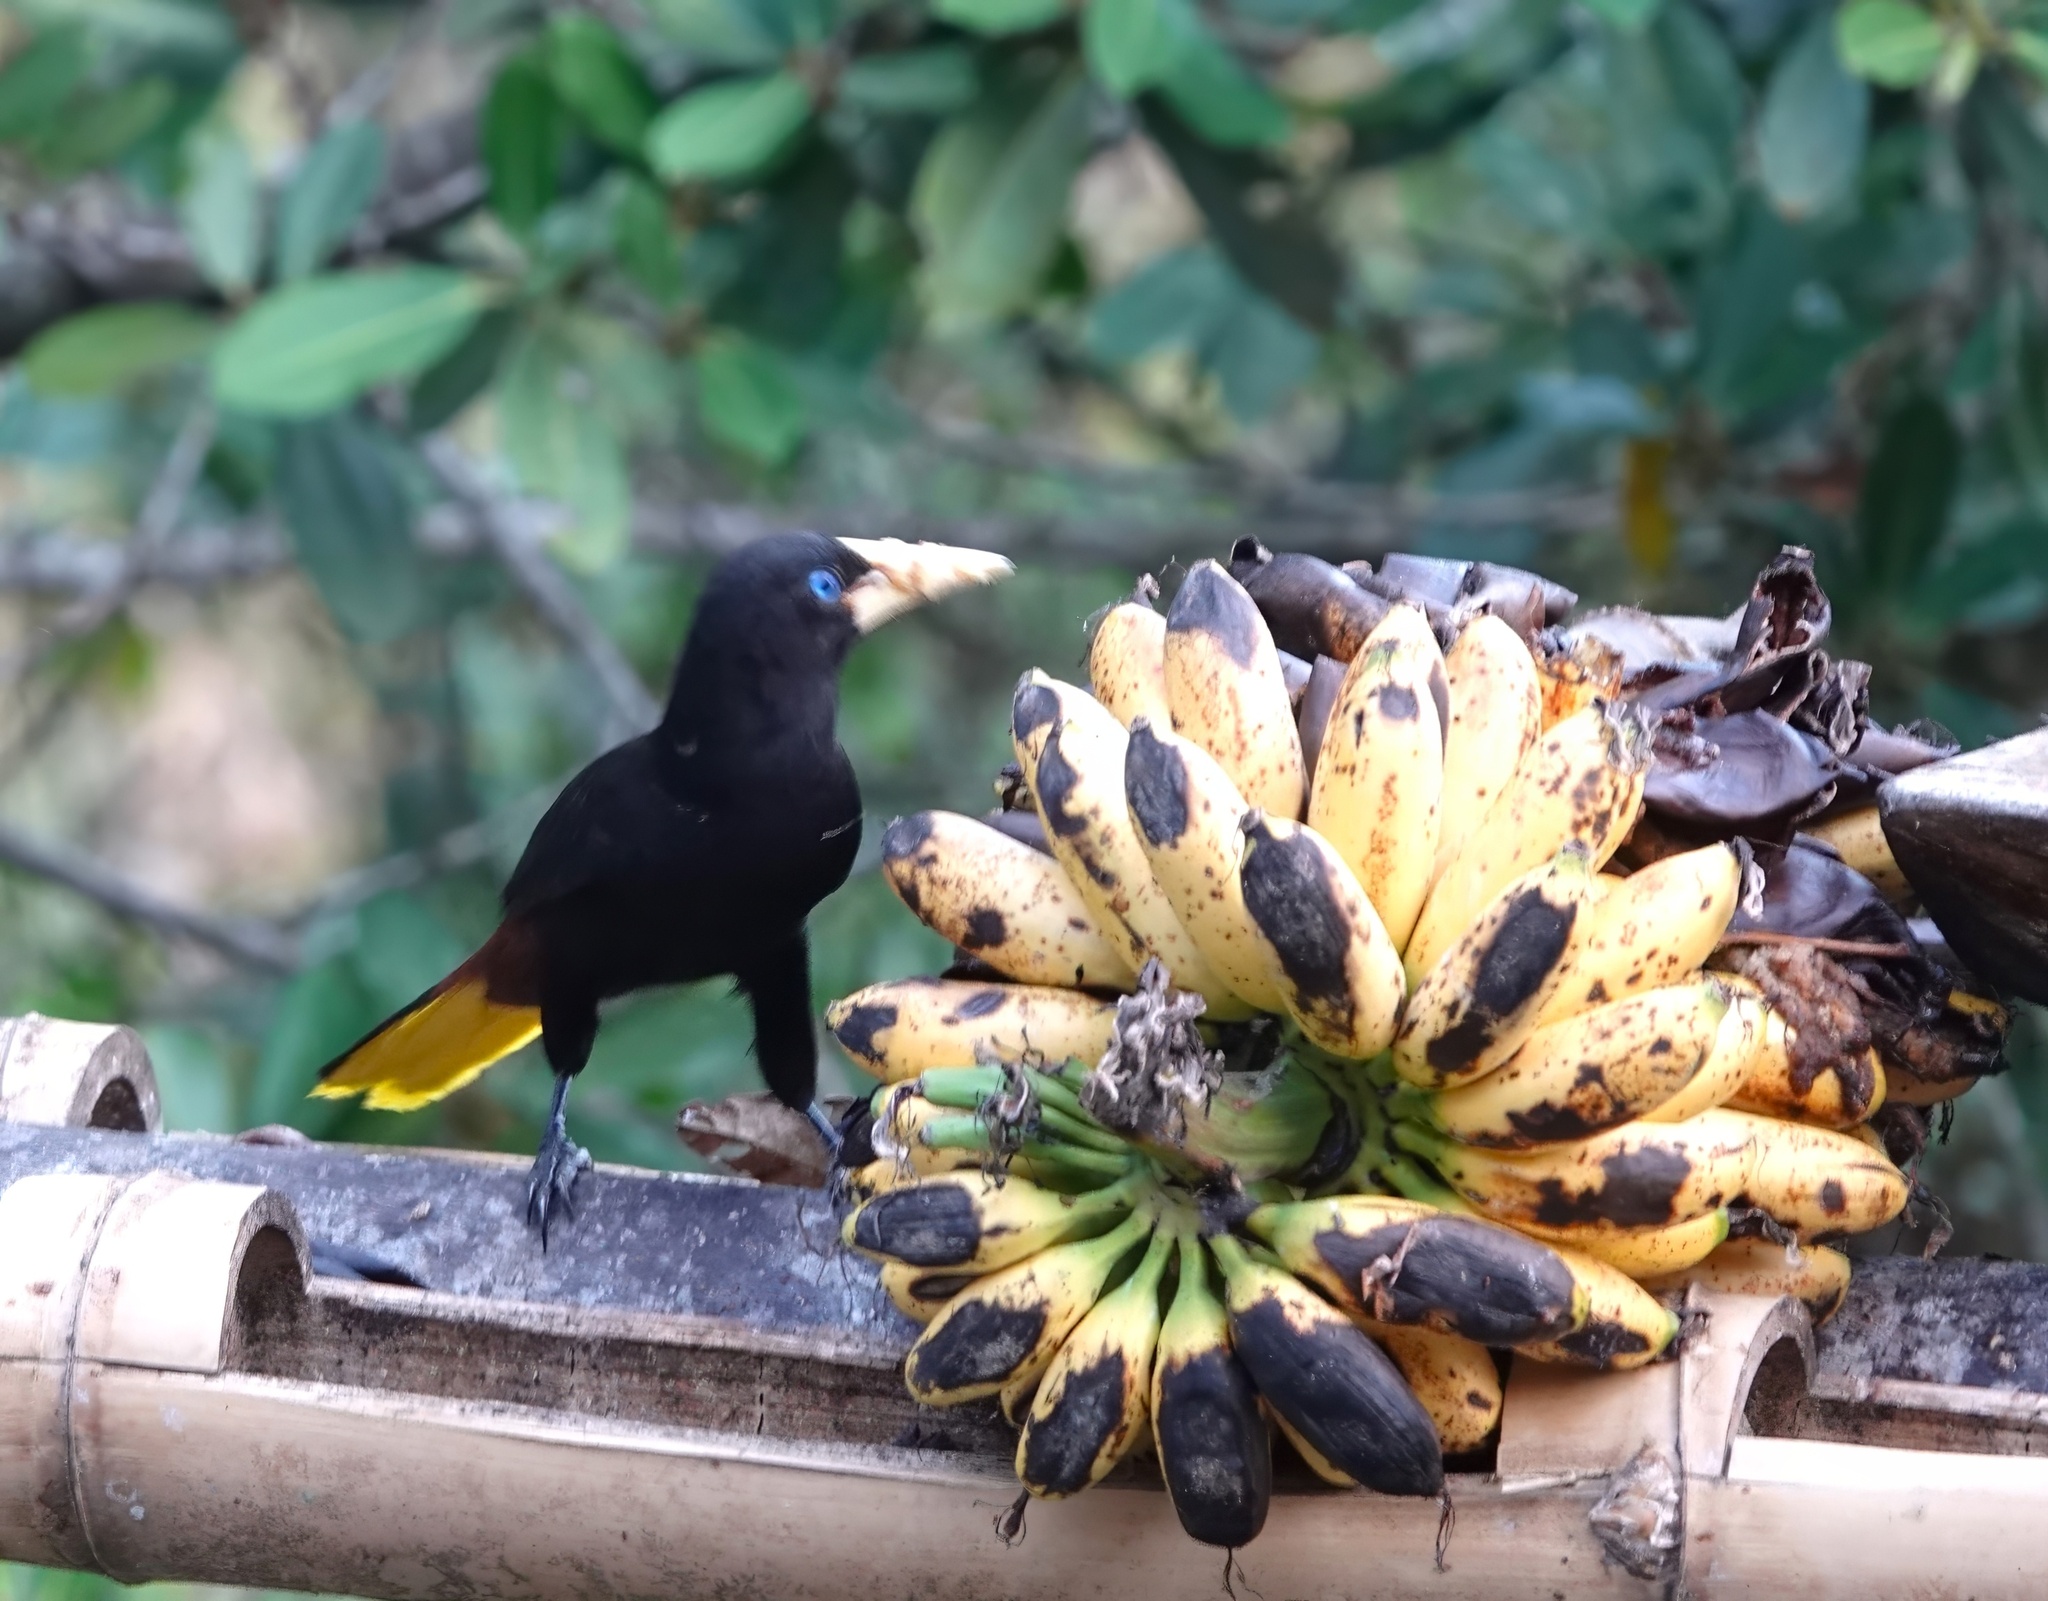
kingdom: Animalia
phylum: Chordata
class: Aves
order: Passeriformes
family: Icteridae
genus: Psarocolius
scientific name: Psarocolius decumanus
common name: Crested oropendola
